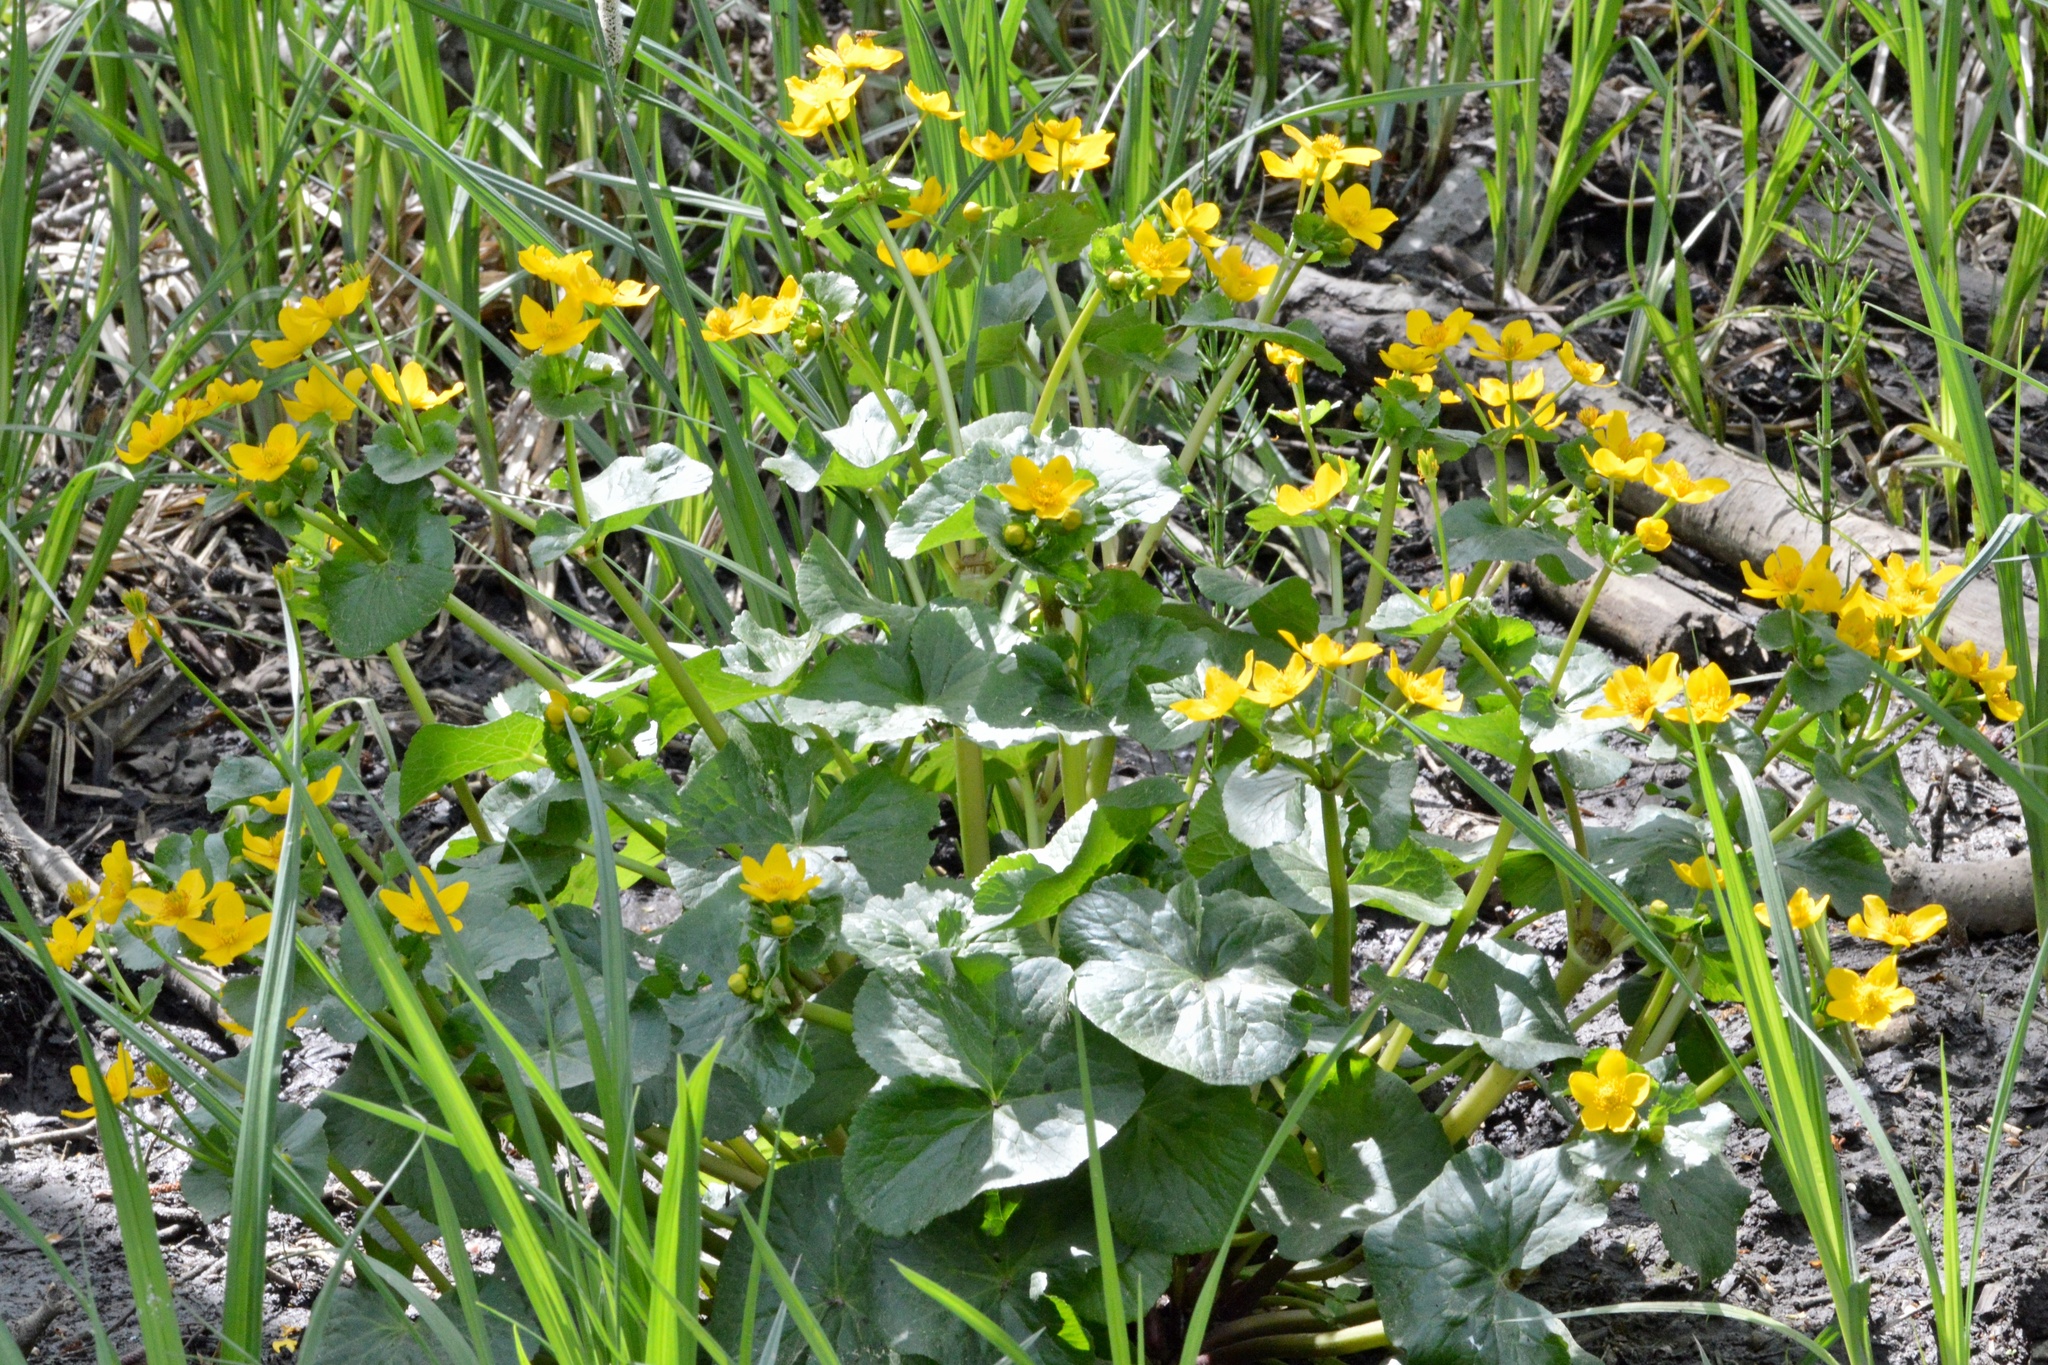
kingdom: Plantae
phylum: Tracheophyta
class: Magnoliopsida
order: Ranunculales
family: Ranunculaceae
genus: Caltha
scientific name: Caltha palustris
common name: Marsh marigold
